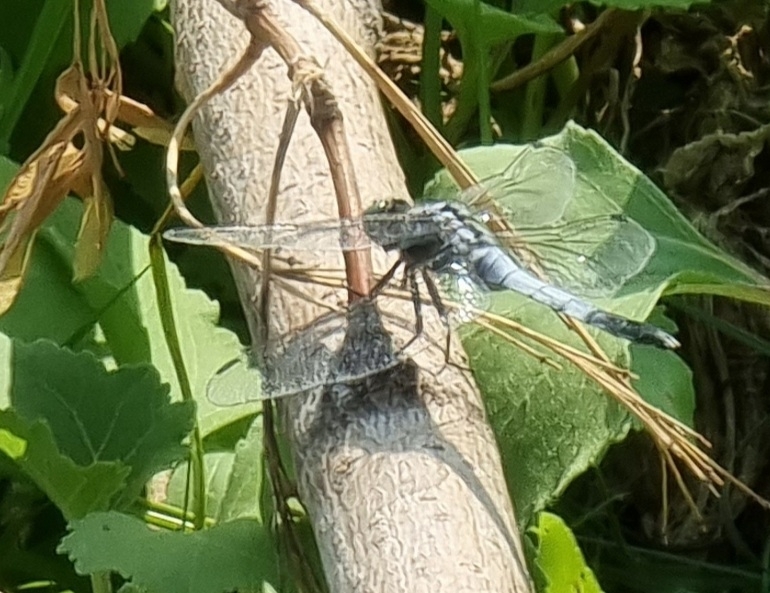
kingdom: Animalia
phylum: Arthropoda
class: Insecta
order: Odonata
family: Libellulidae
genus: Orthetrum
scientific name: Orthetrum albistylum
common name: White-tailed skimmer
